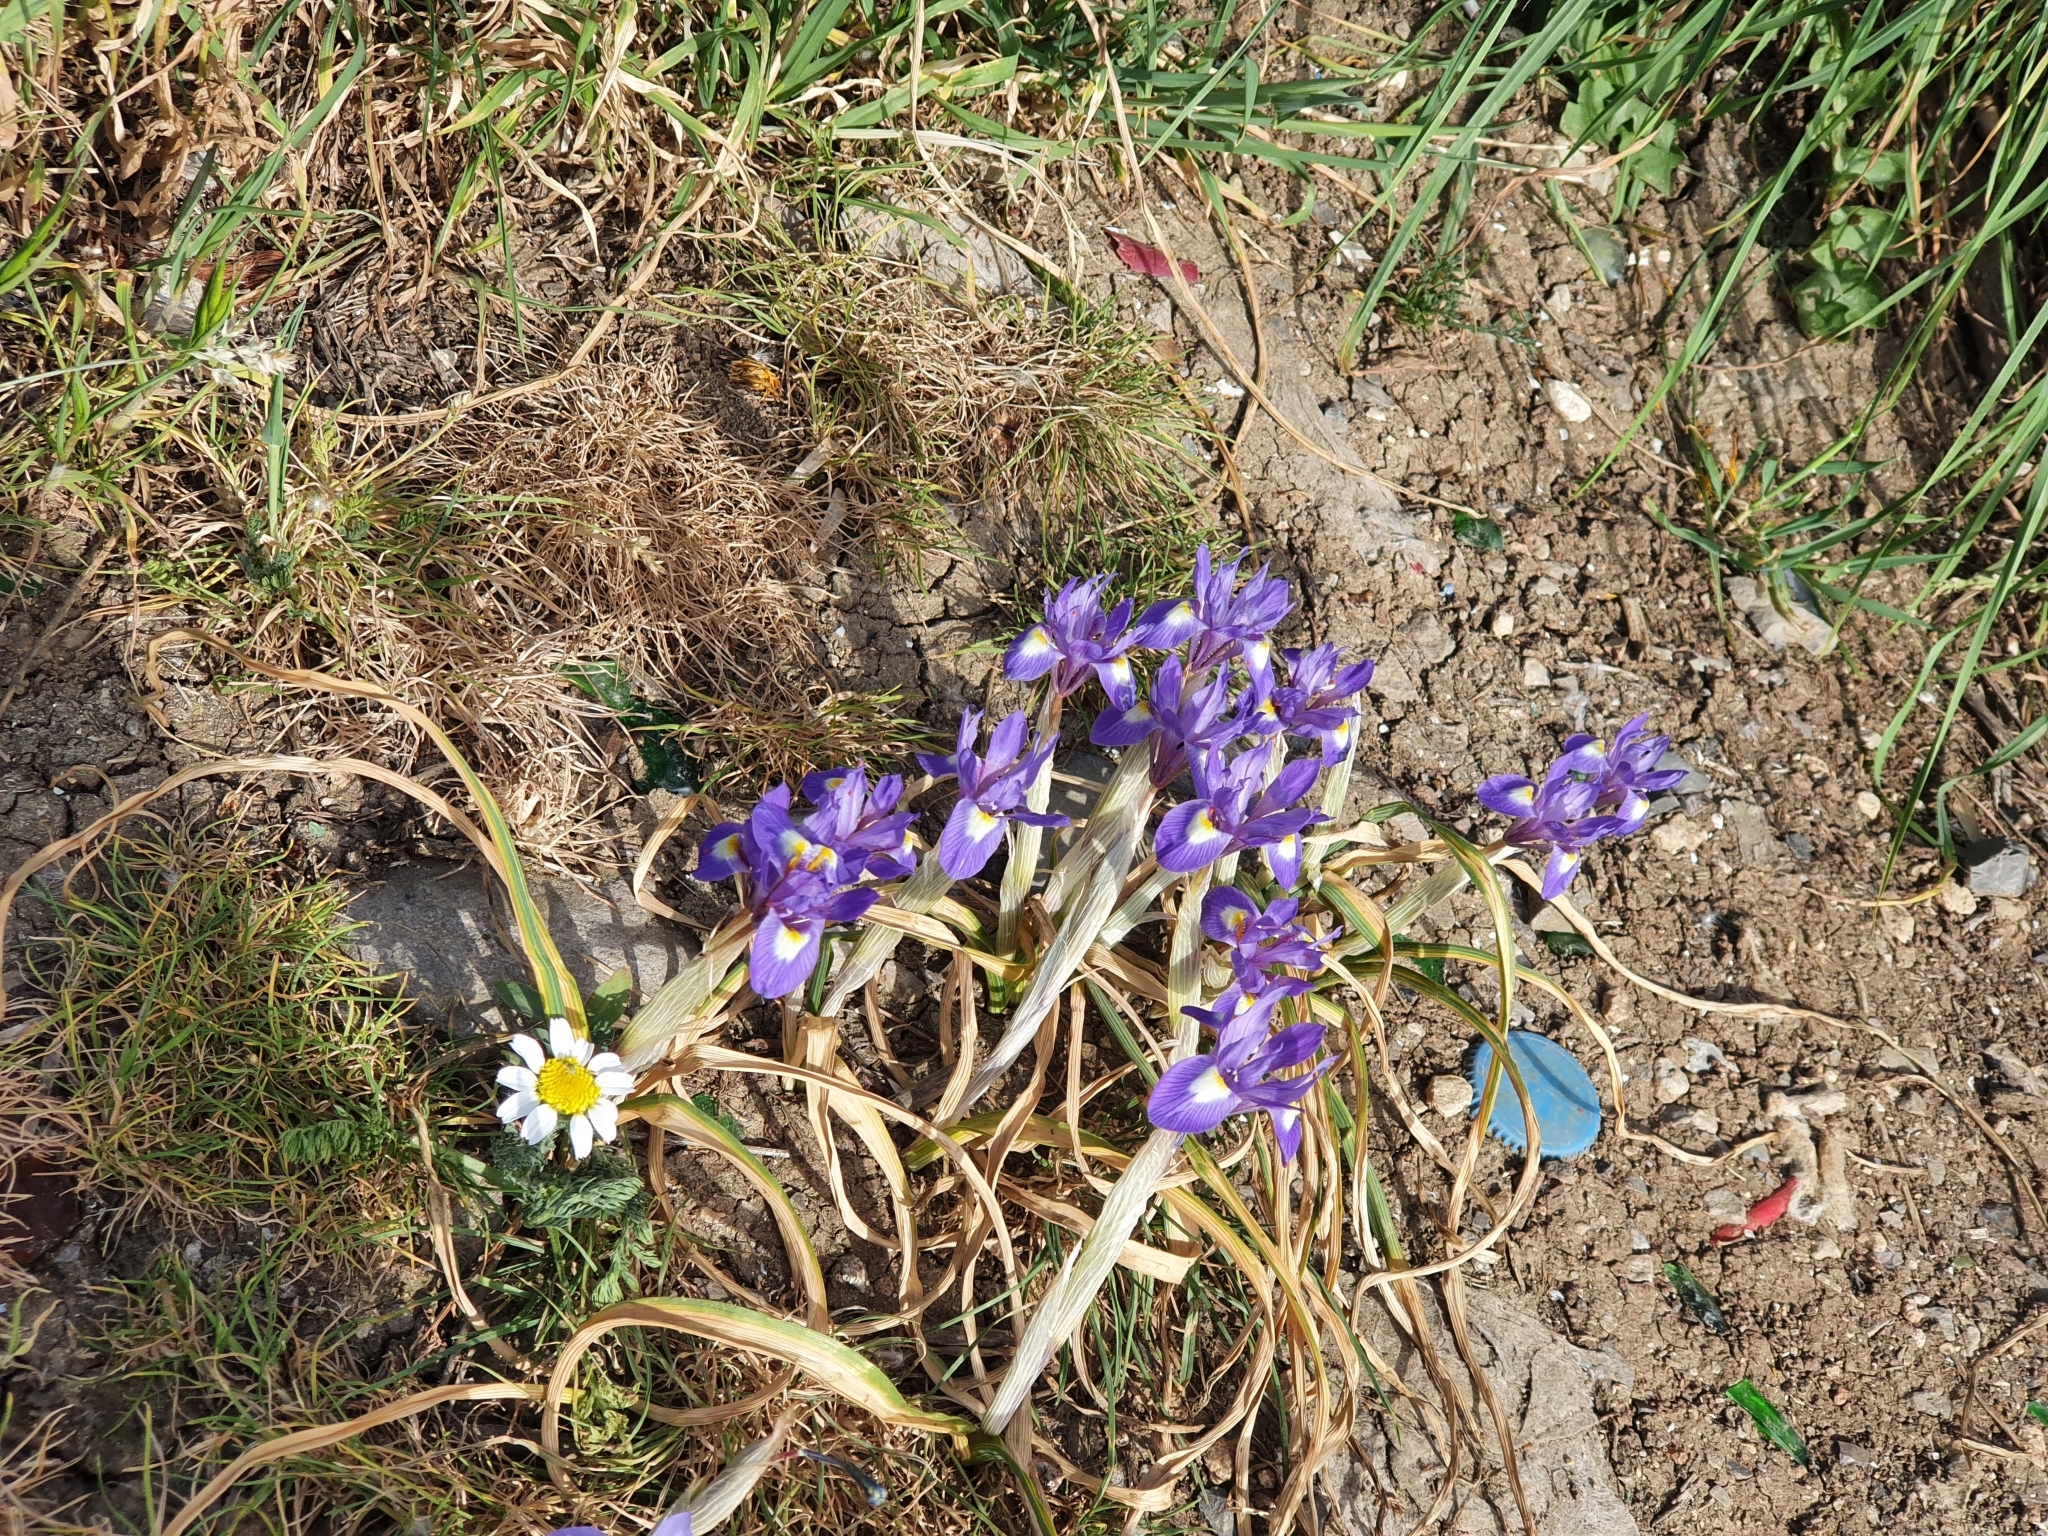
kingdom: Plantae
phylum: Tracheophyta
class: Liliopsida
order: Asparagales
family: Iridaceae
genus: Moraea
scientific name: Moraea sisyrinchium
